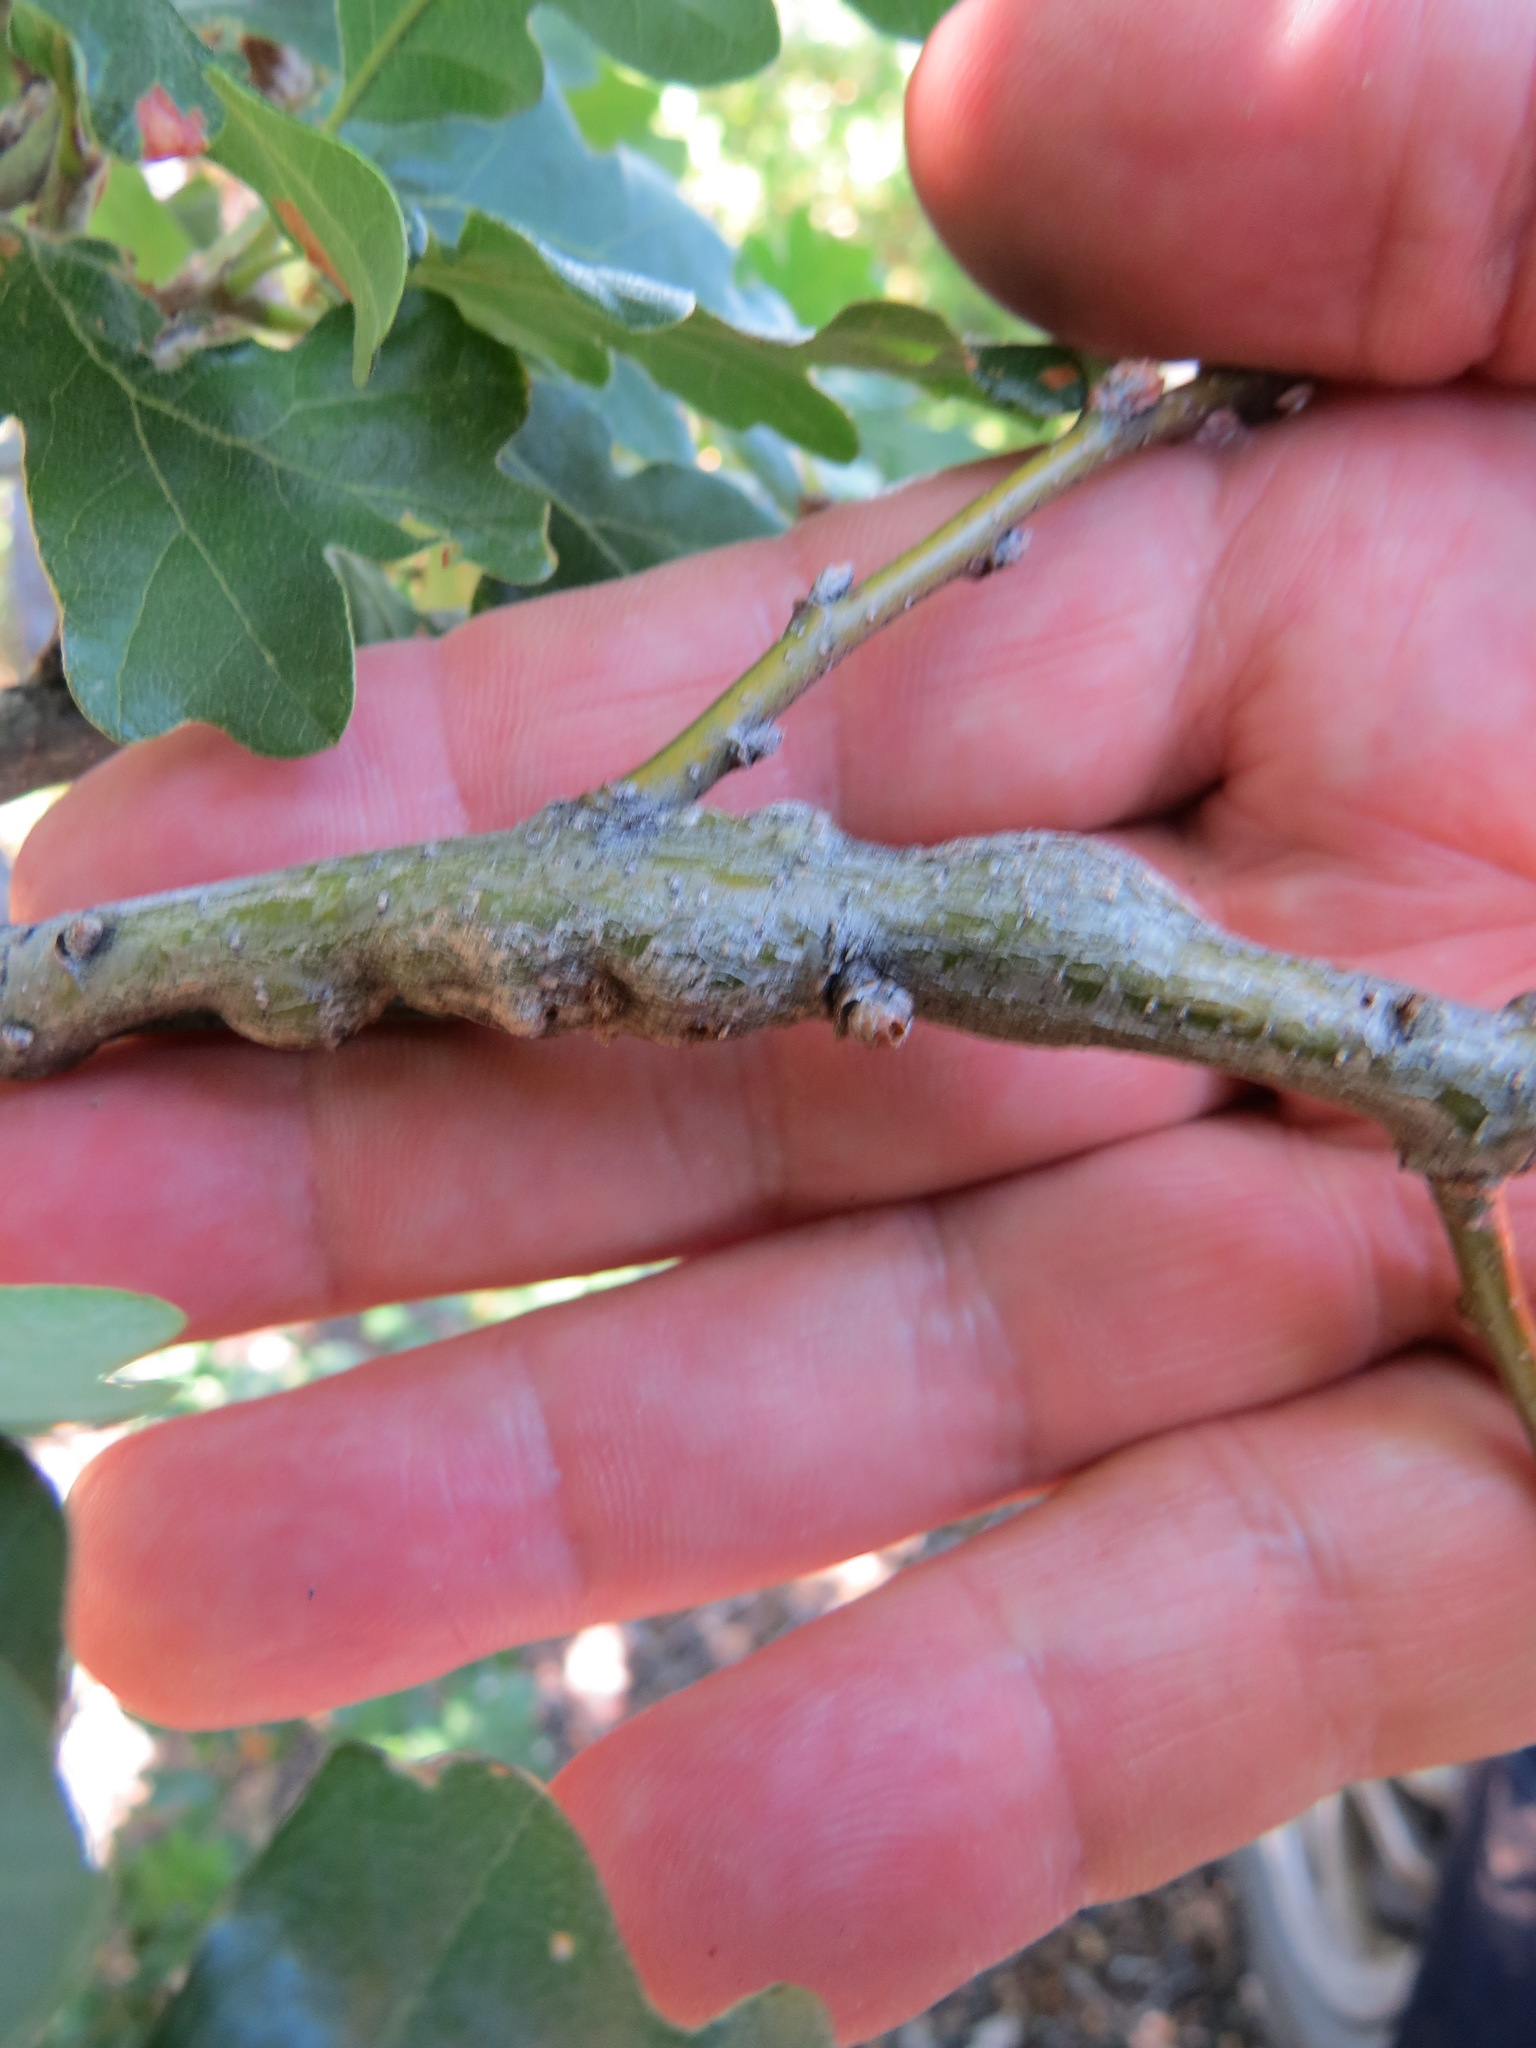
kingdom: Animalia
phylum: Arthropoda
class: Insecta
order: Hymenoptera
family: Cynipidae
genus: Neuroterus
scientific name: Neuroterus
